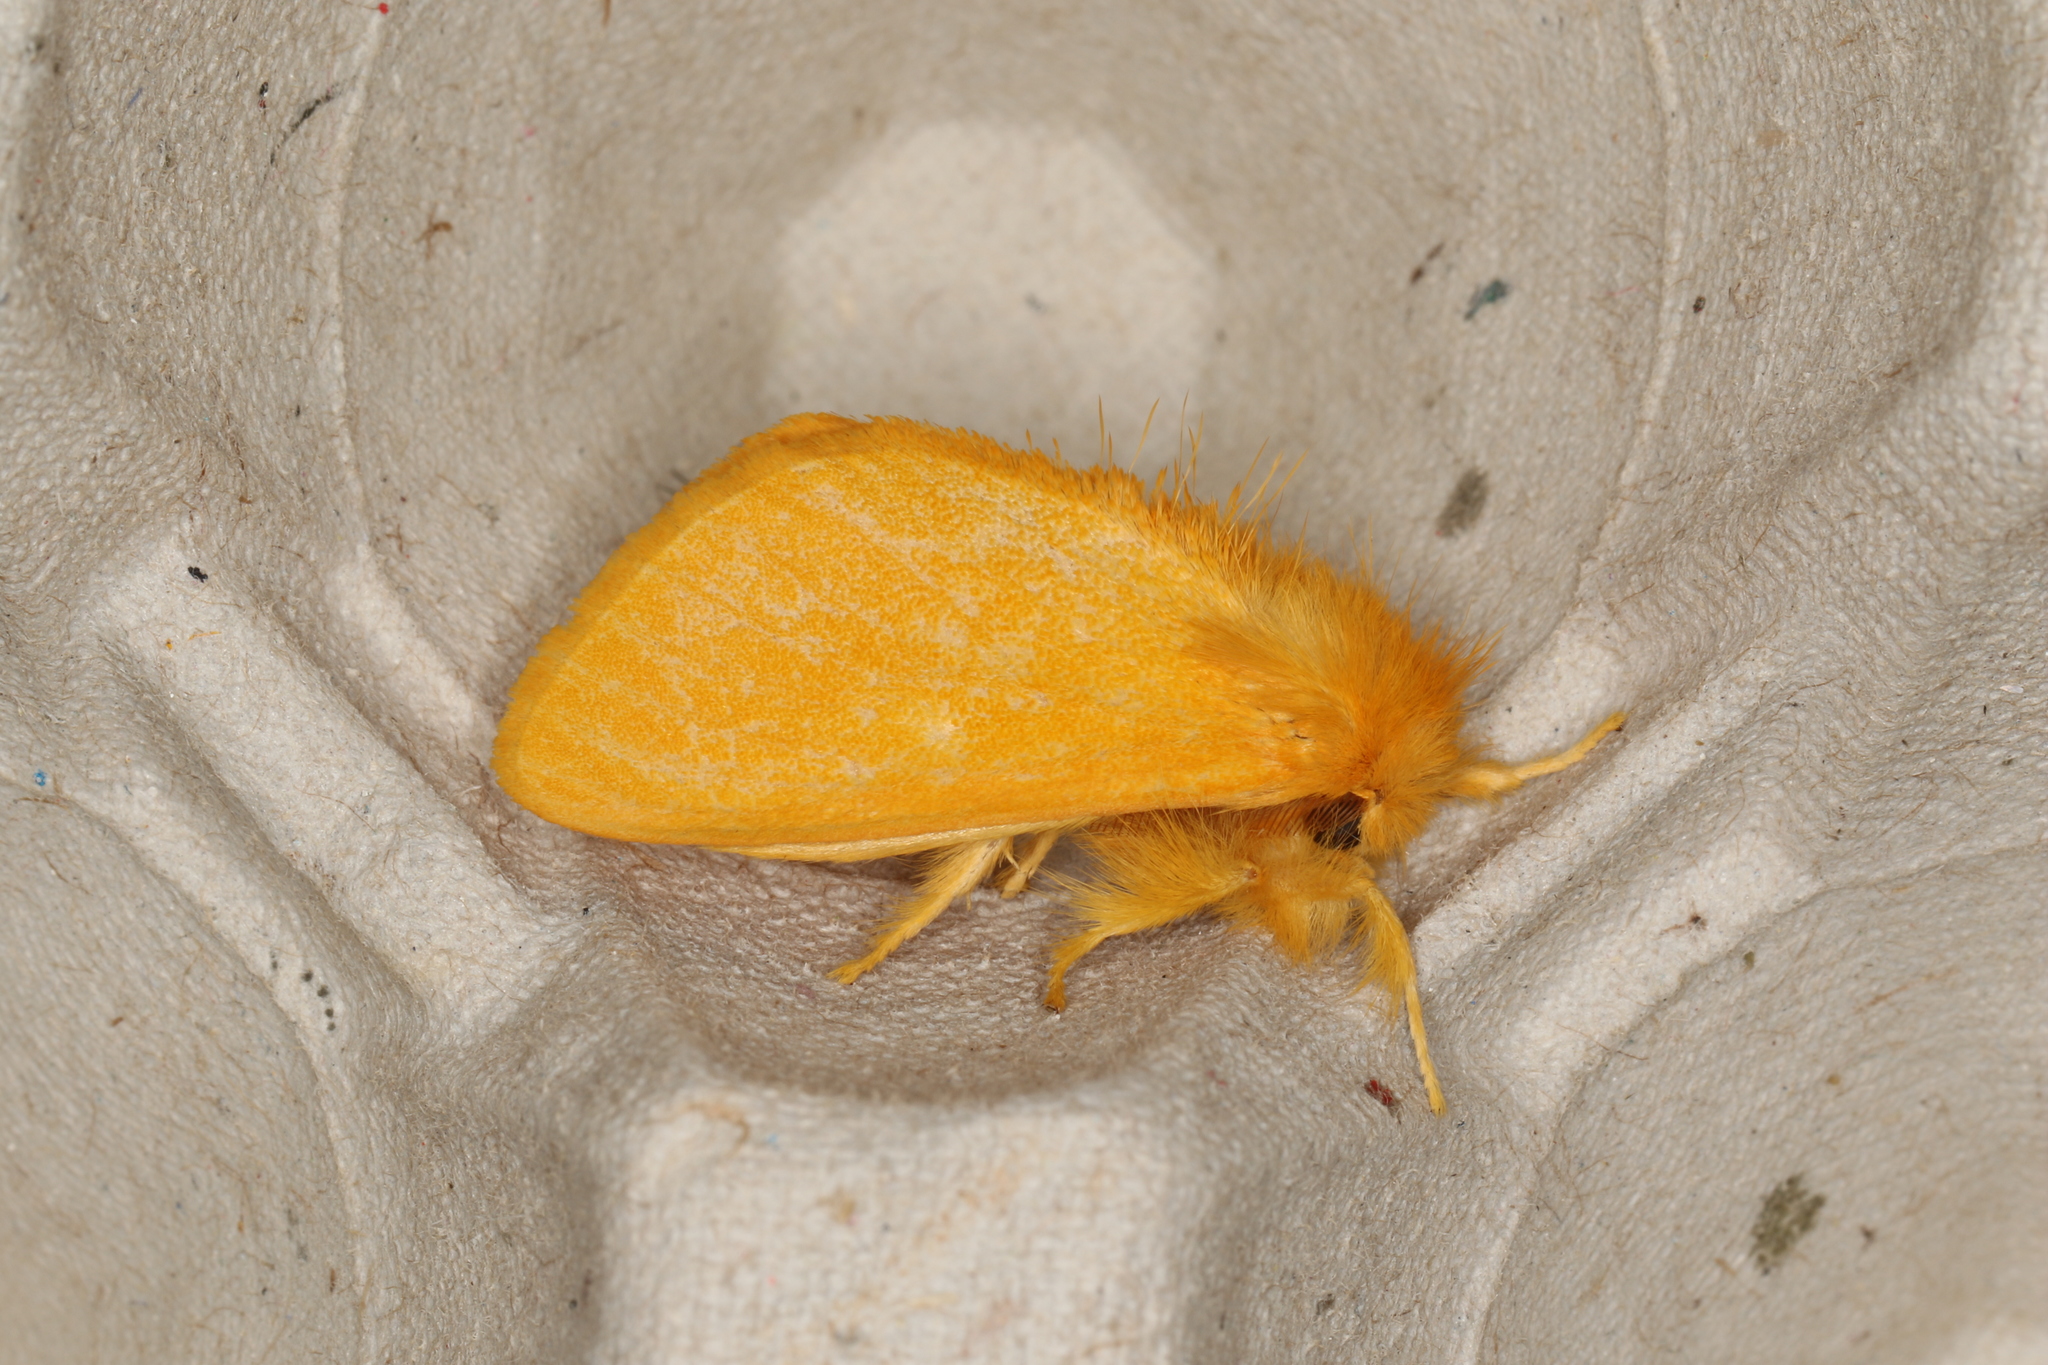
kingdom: Animalia
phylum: Arthropoda
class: Insecta
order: Lepidoptera
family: Erebidae
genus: Euproctis
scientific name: Euproctis crocea
